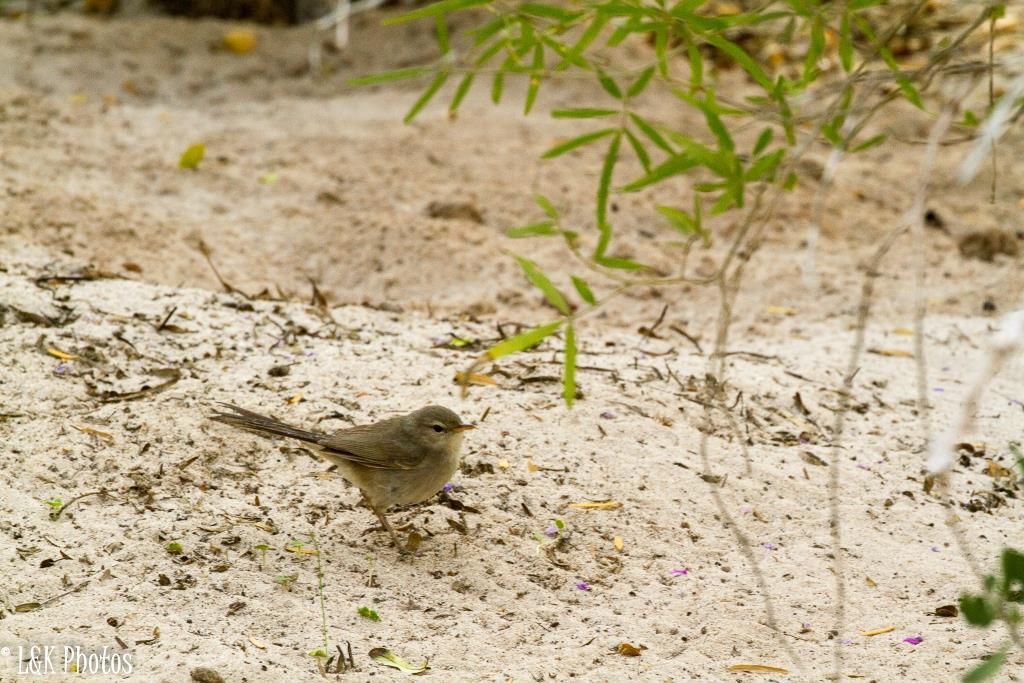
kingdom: Animalia
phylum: Chordata
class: Aves
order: Passeriformes
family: Acrocephalidae
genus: Nesillas
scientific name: Nesillas lantzii
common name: Subdesert brush-warbler
